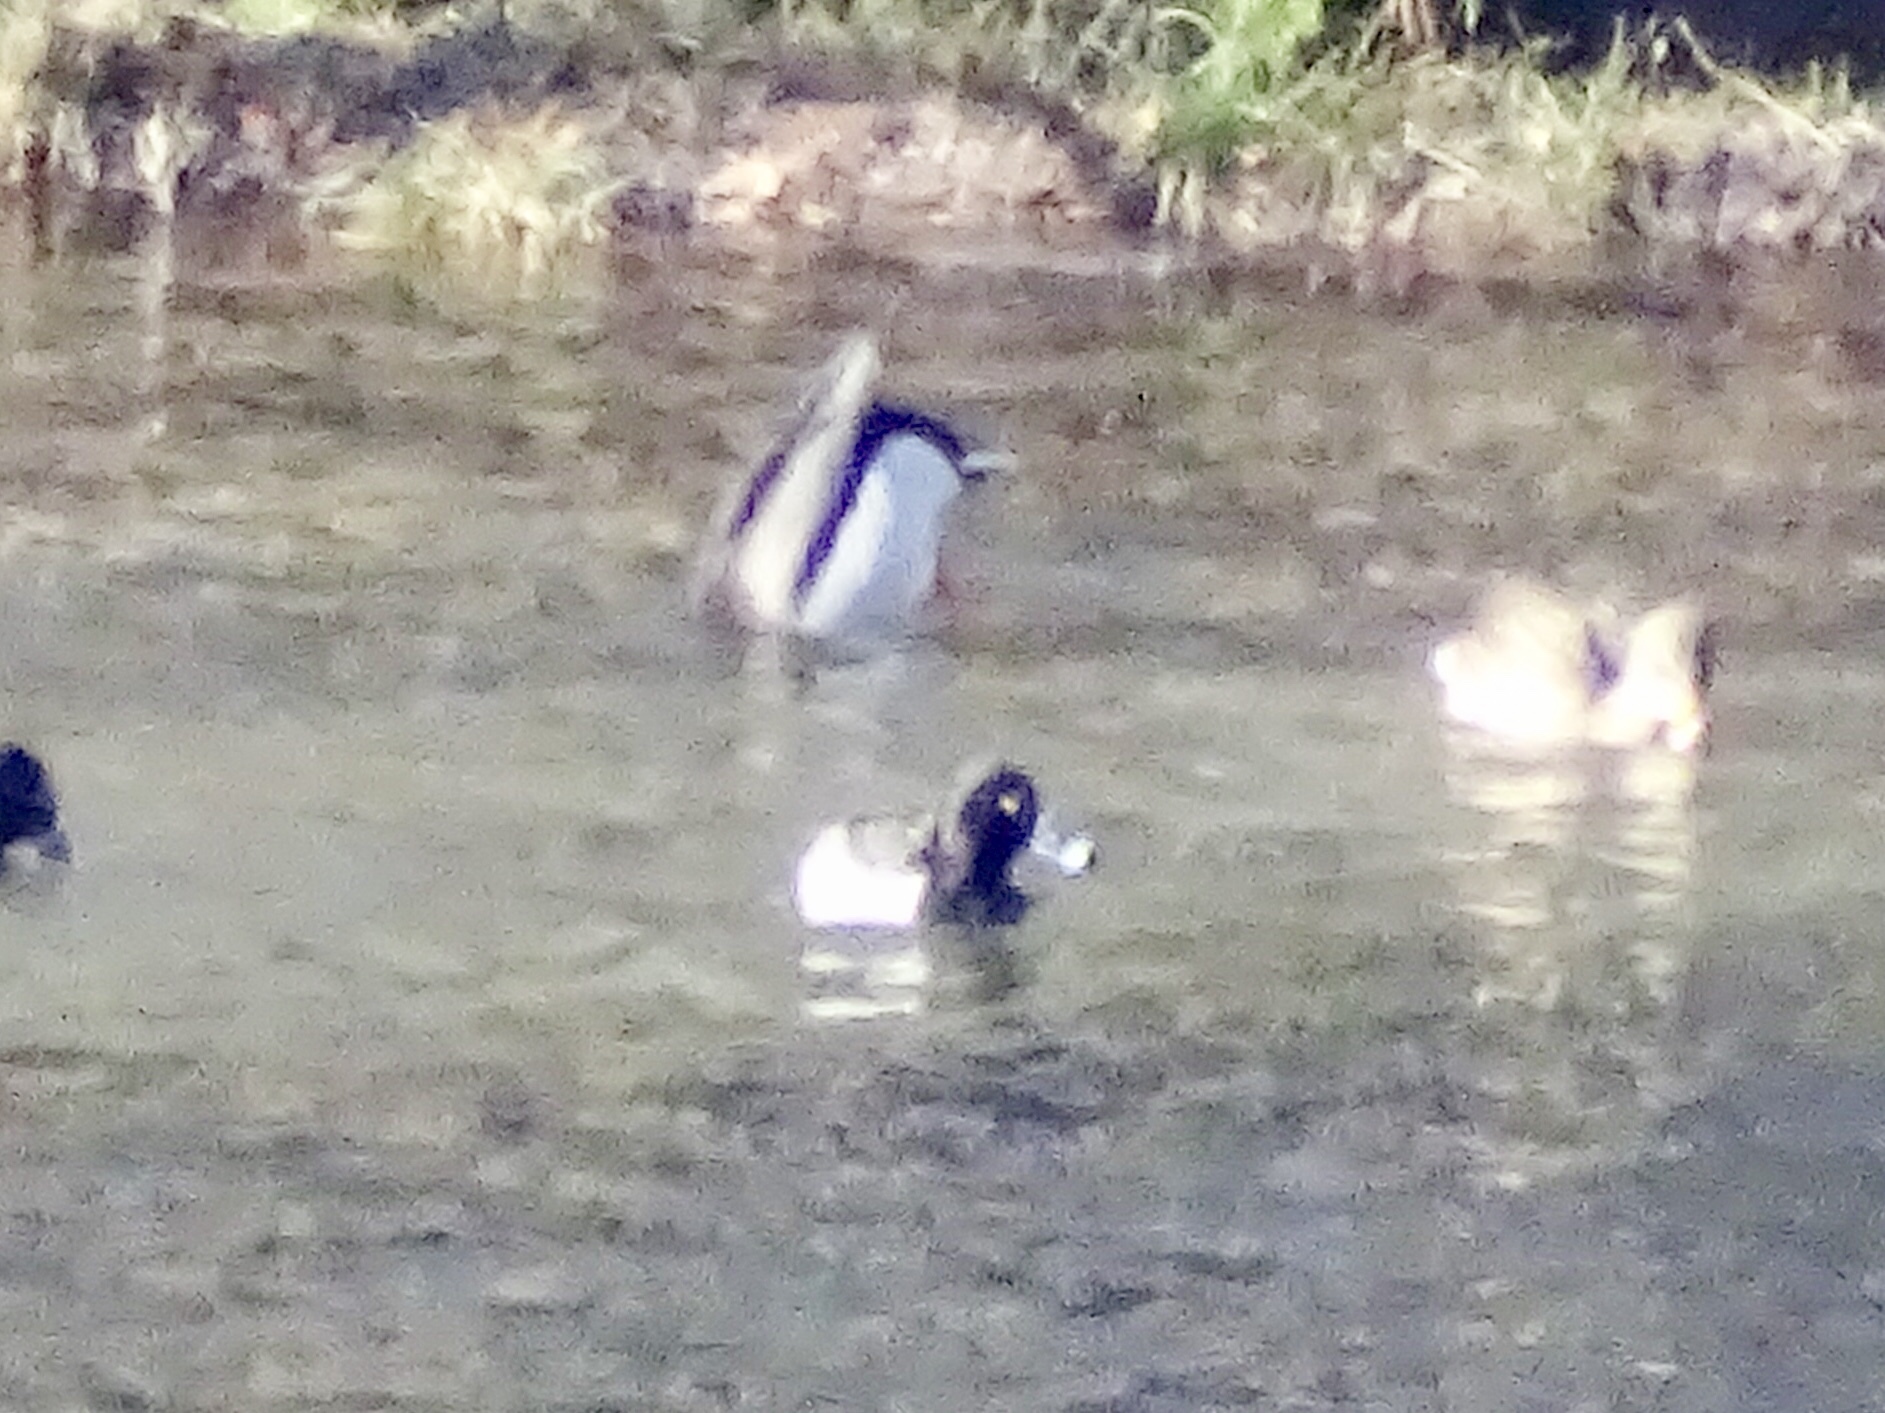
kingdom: Animalia
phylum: Chordata
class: Aves
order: Anseriformes
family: Anatidae
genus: Aythya
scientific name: Aythya collaris
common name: Ring-necked duck
